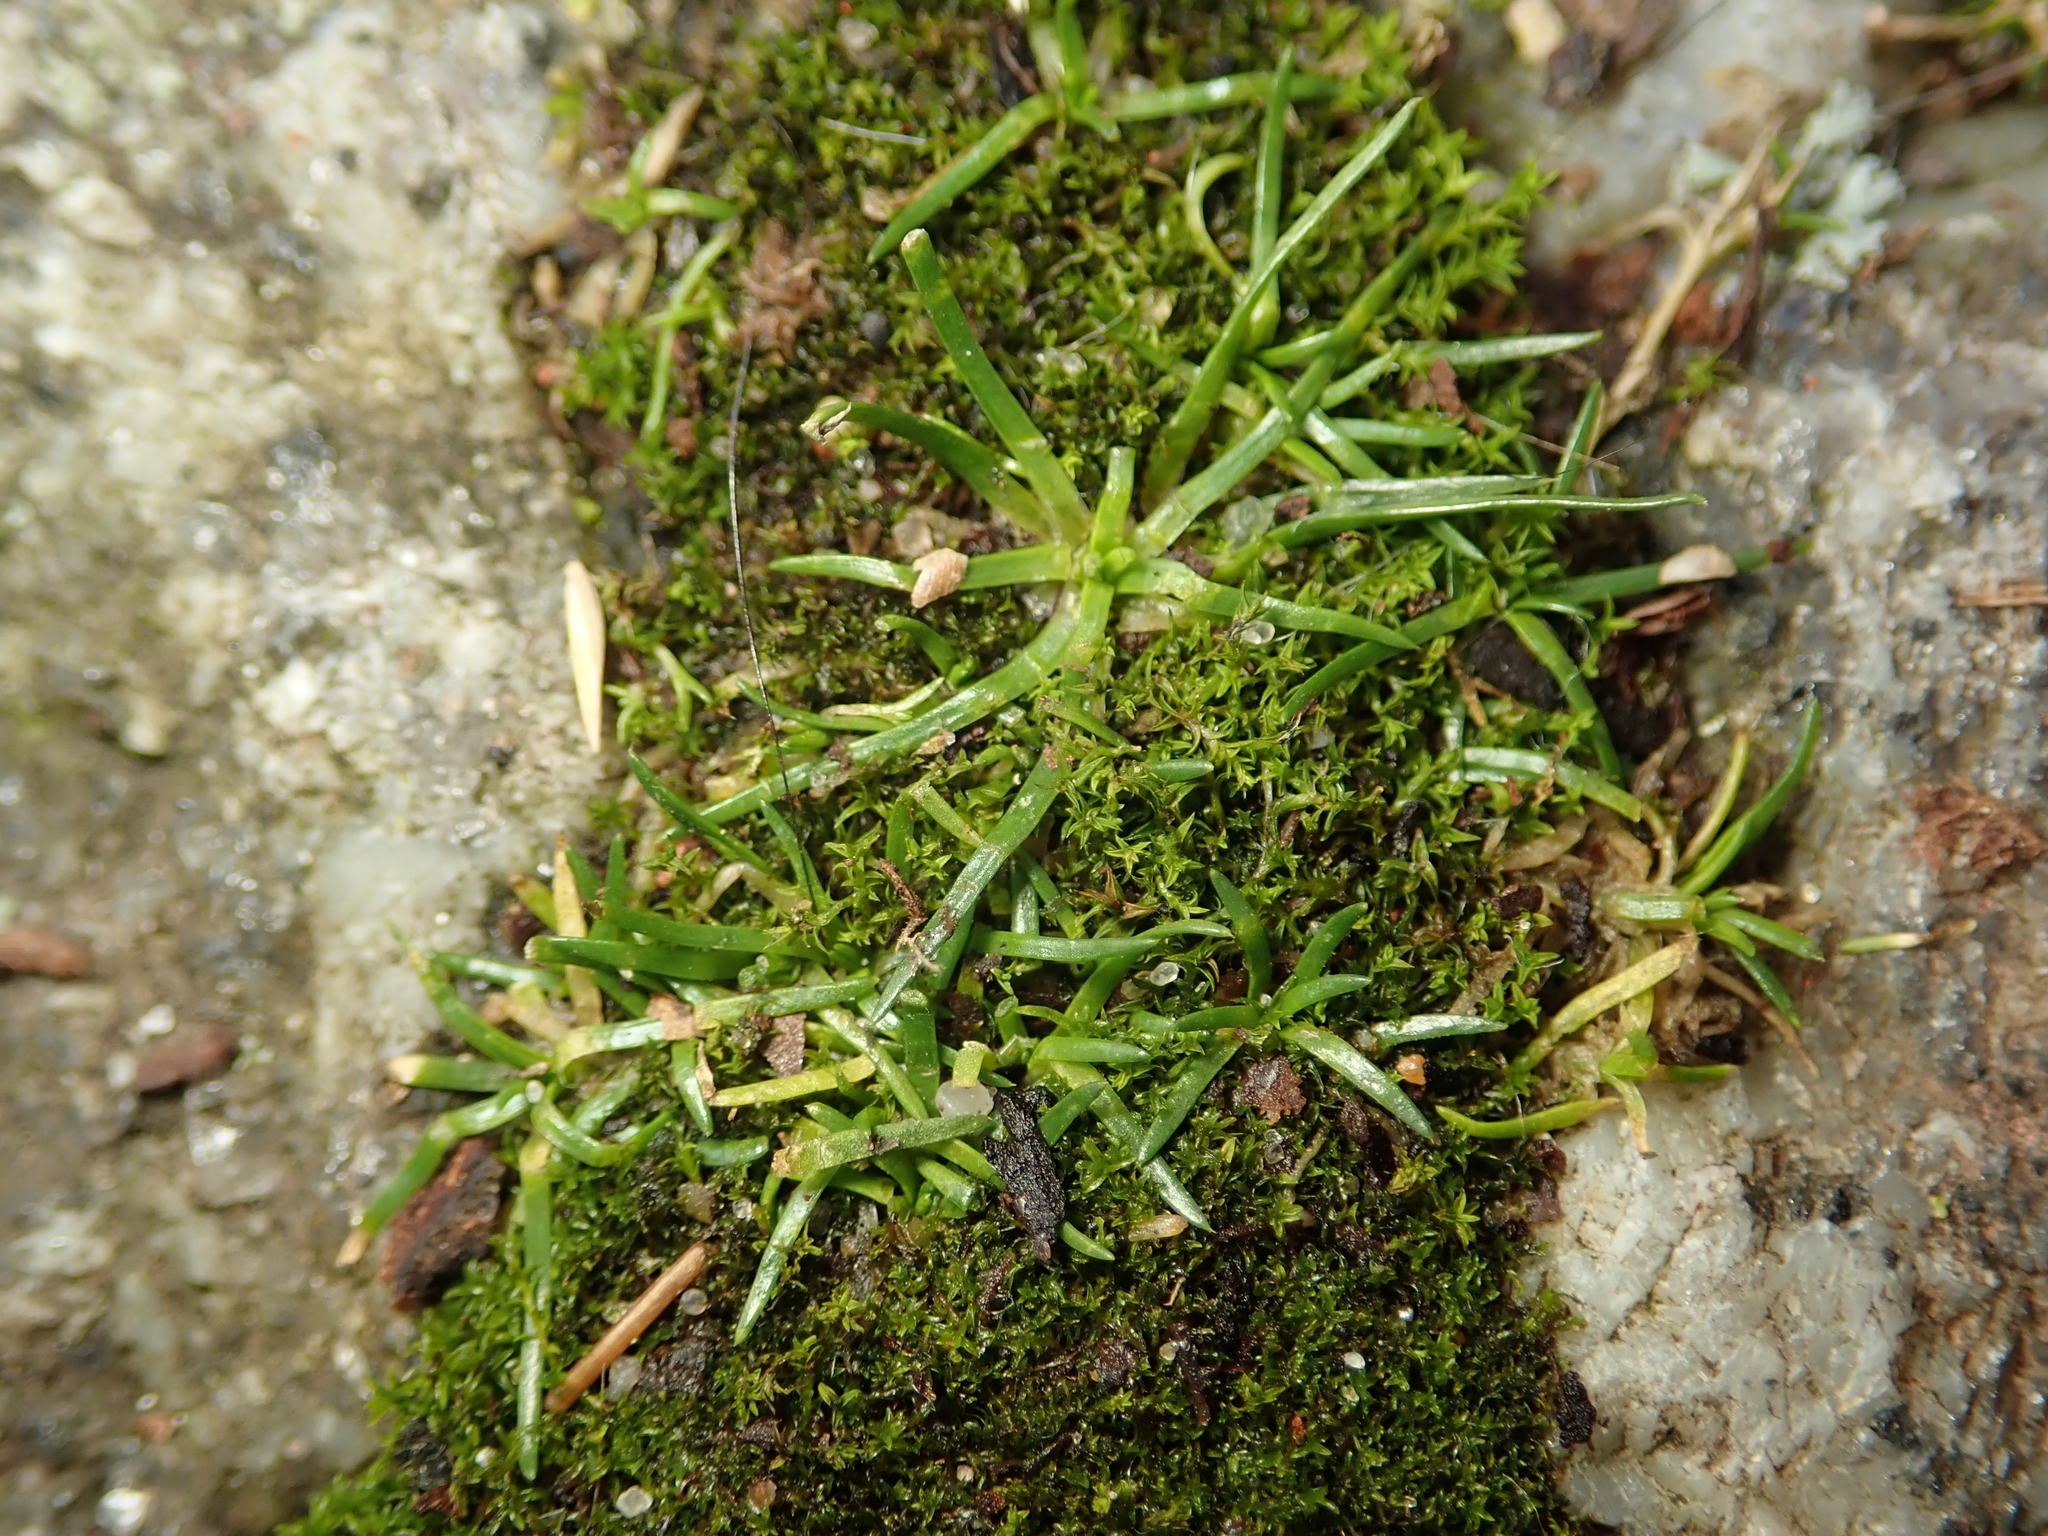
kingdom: Plantae
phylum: Tracheophyta
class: Magnoliopsida
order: Caryophyllales
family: Caryophyllaceae
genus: Sagina
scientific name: Sagina procumbens
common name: Procumbent pearlwort
